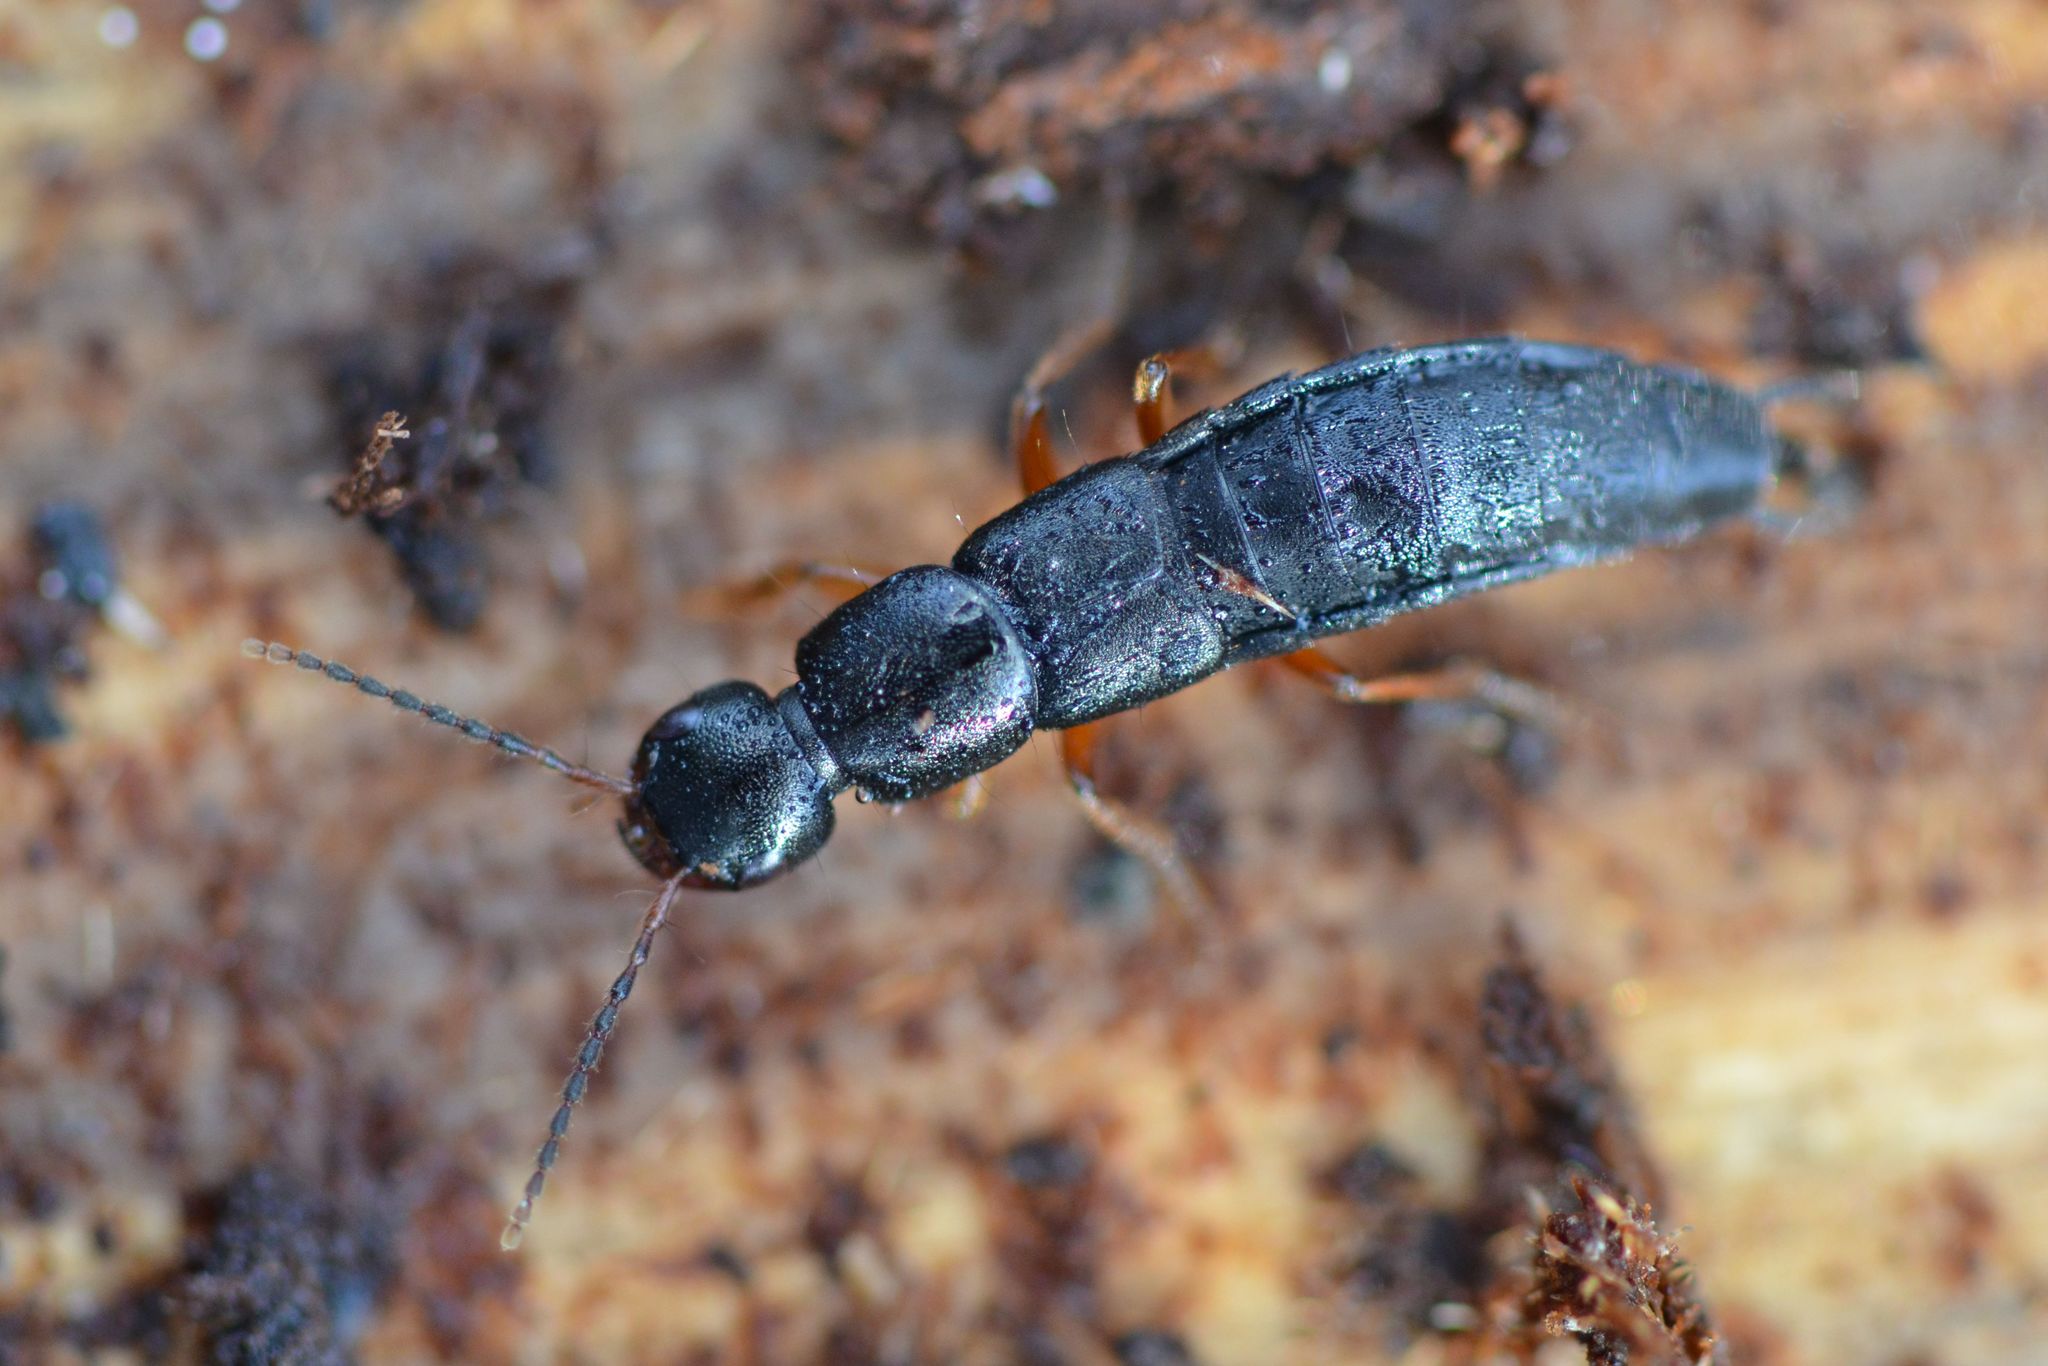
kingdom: Animalia
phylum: Arthropoda
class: Insecta
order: Coleoptera
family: Staphylinidae
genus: Ocypus
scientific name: Ocypus brunnipes
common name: Rove beetle
